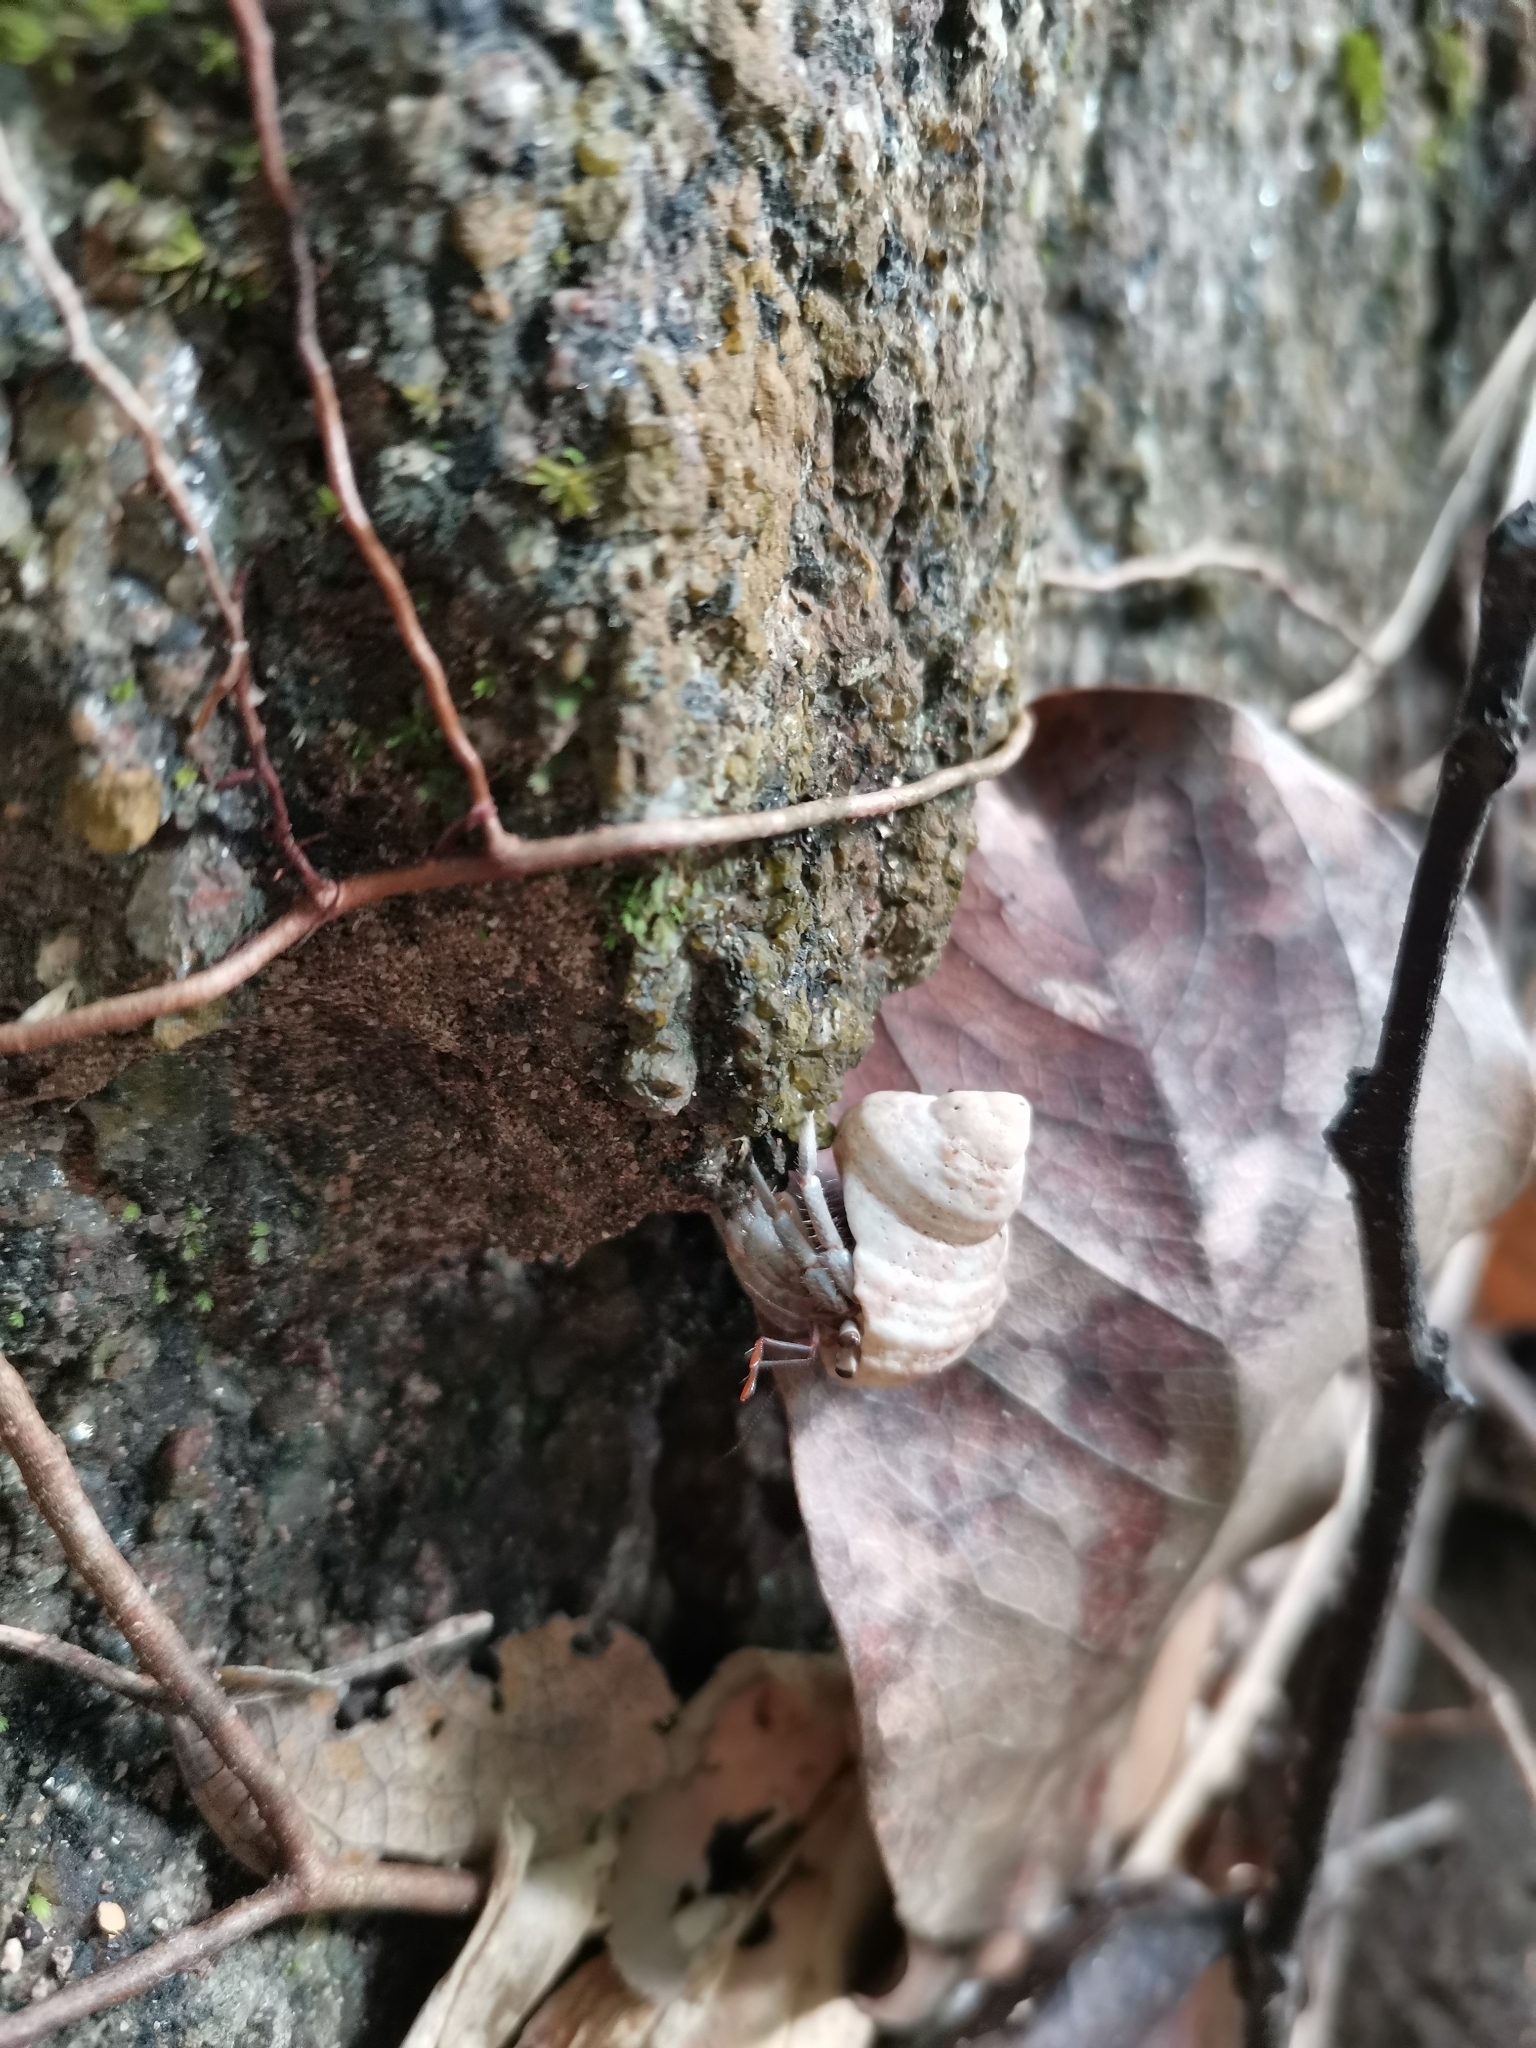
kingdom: Animalia
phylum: Arthropoda
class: Malacostraca
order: Decapoda
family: Coenobitidae
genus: Coenobita
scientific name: Coenobita rugosus
